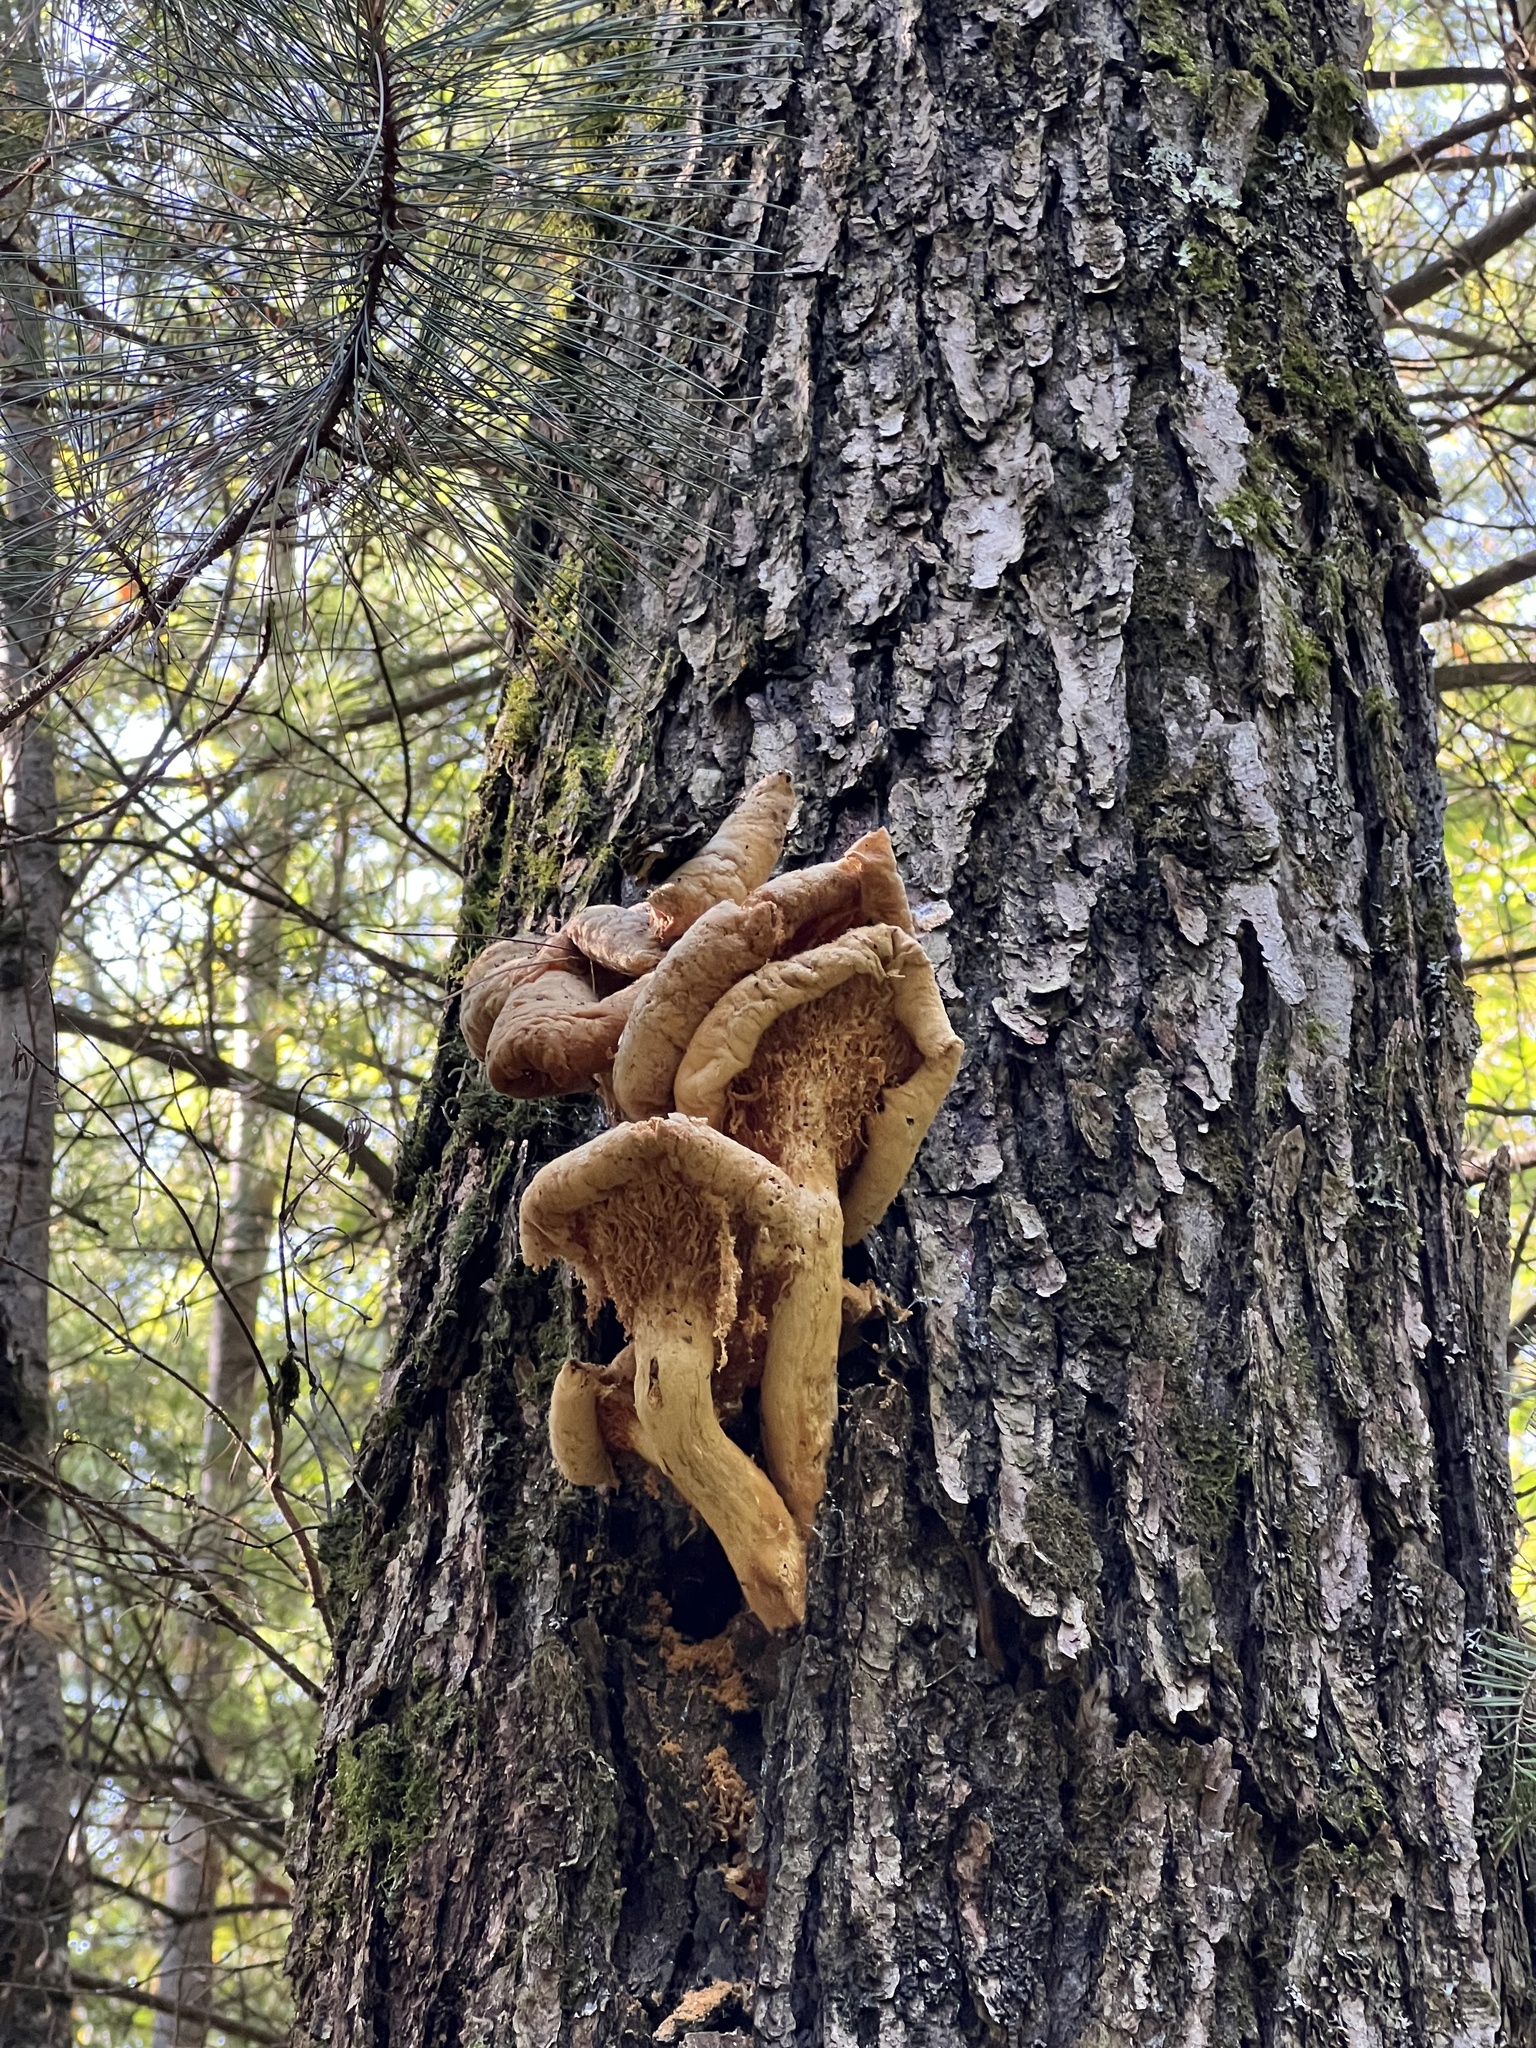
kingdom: Fungi
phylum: Basidiomycota
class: Agaricomycetes
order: Polyporales
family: Polyporaceae
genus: Lentinus
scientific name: Lentinus levis
